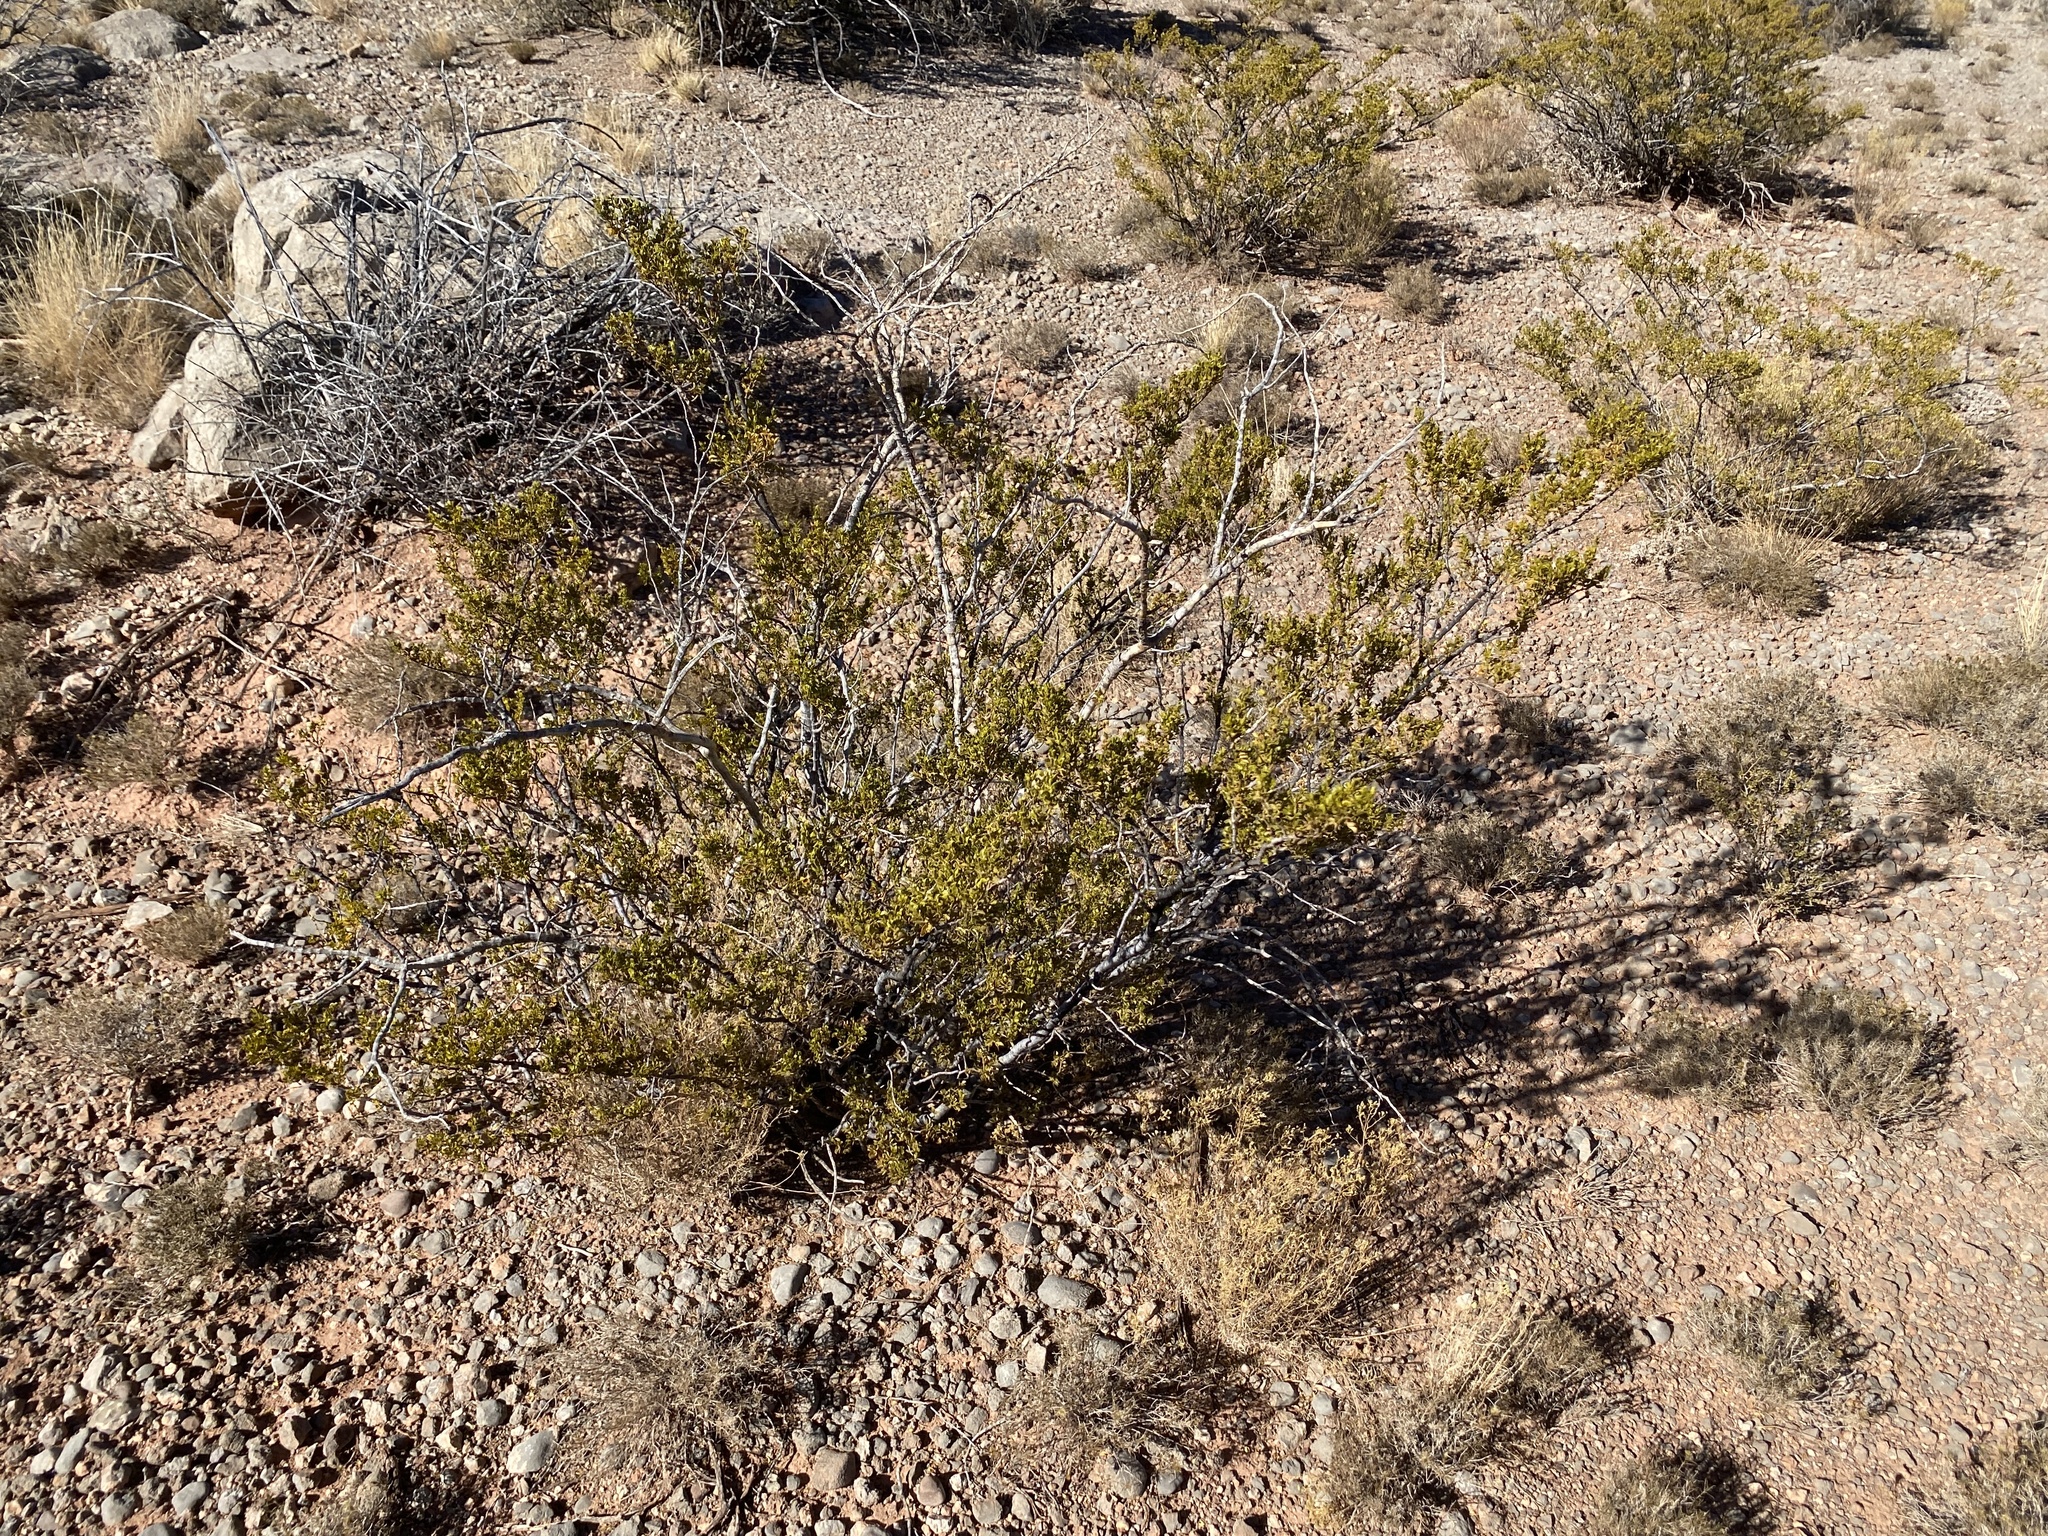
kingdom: Plantae
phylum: Tracheophyta
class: Magnoliopsida
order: Zygophyllales
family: Zygophyllaceae
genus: Larrea
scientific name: Larrea tridentata
